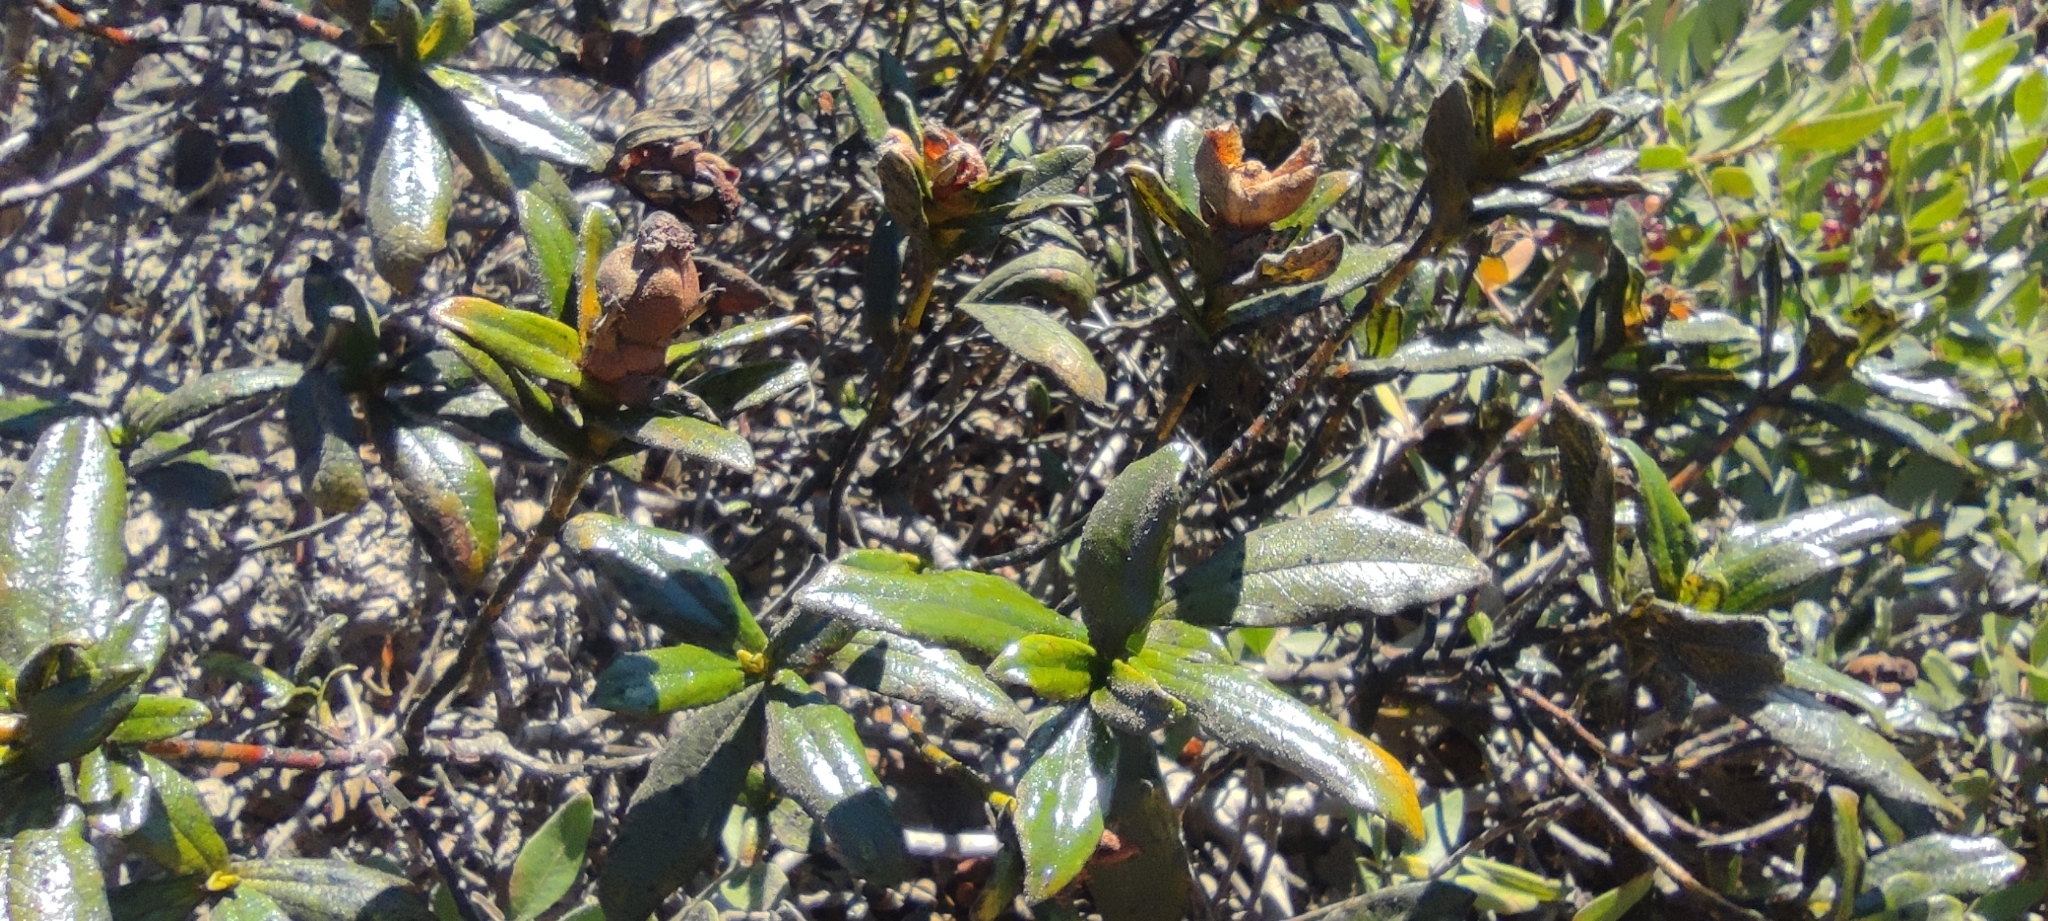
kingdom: Plantae
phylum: Tracheophyta
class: Magnoliopsida
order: Malvales
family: Cistaceae
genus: Cistus
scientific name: Cistus ladanifer
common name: Common gum cistus
